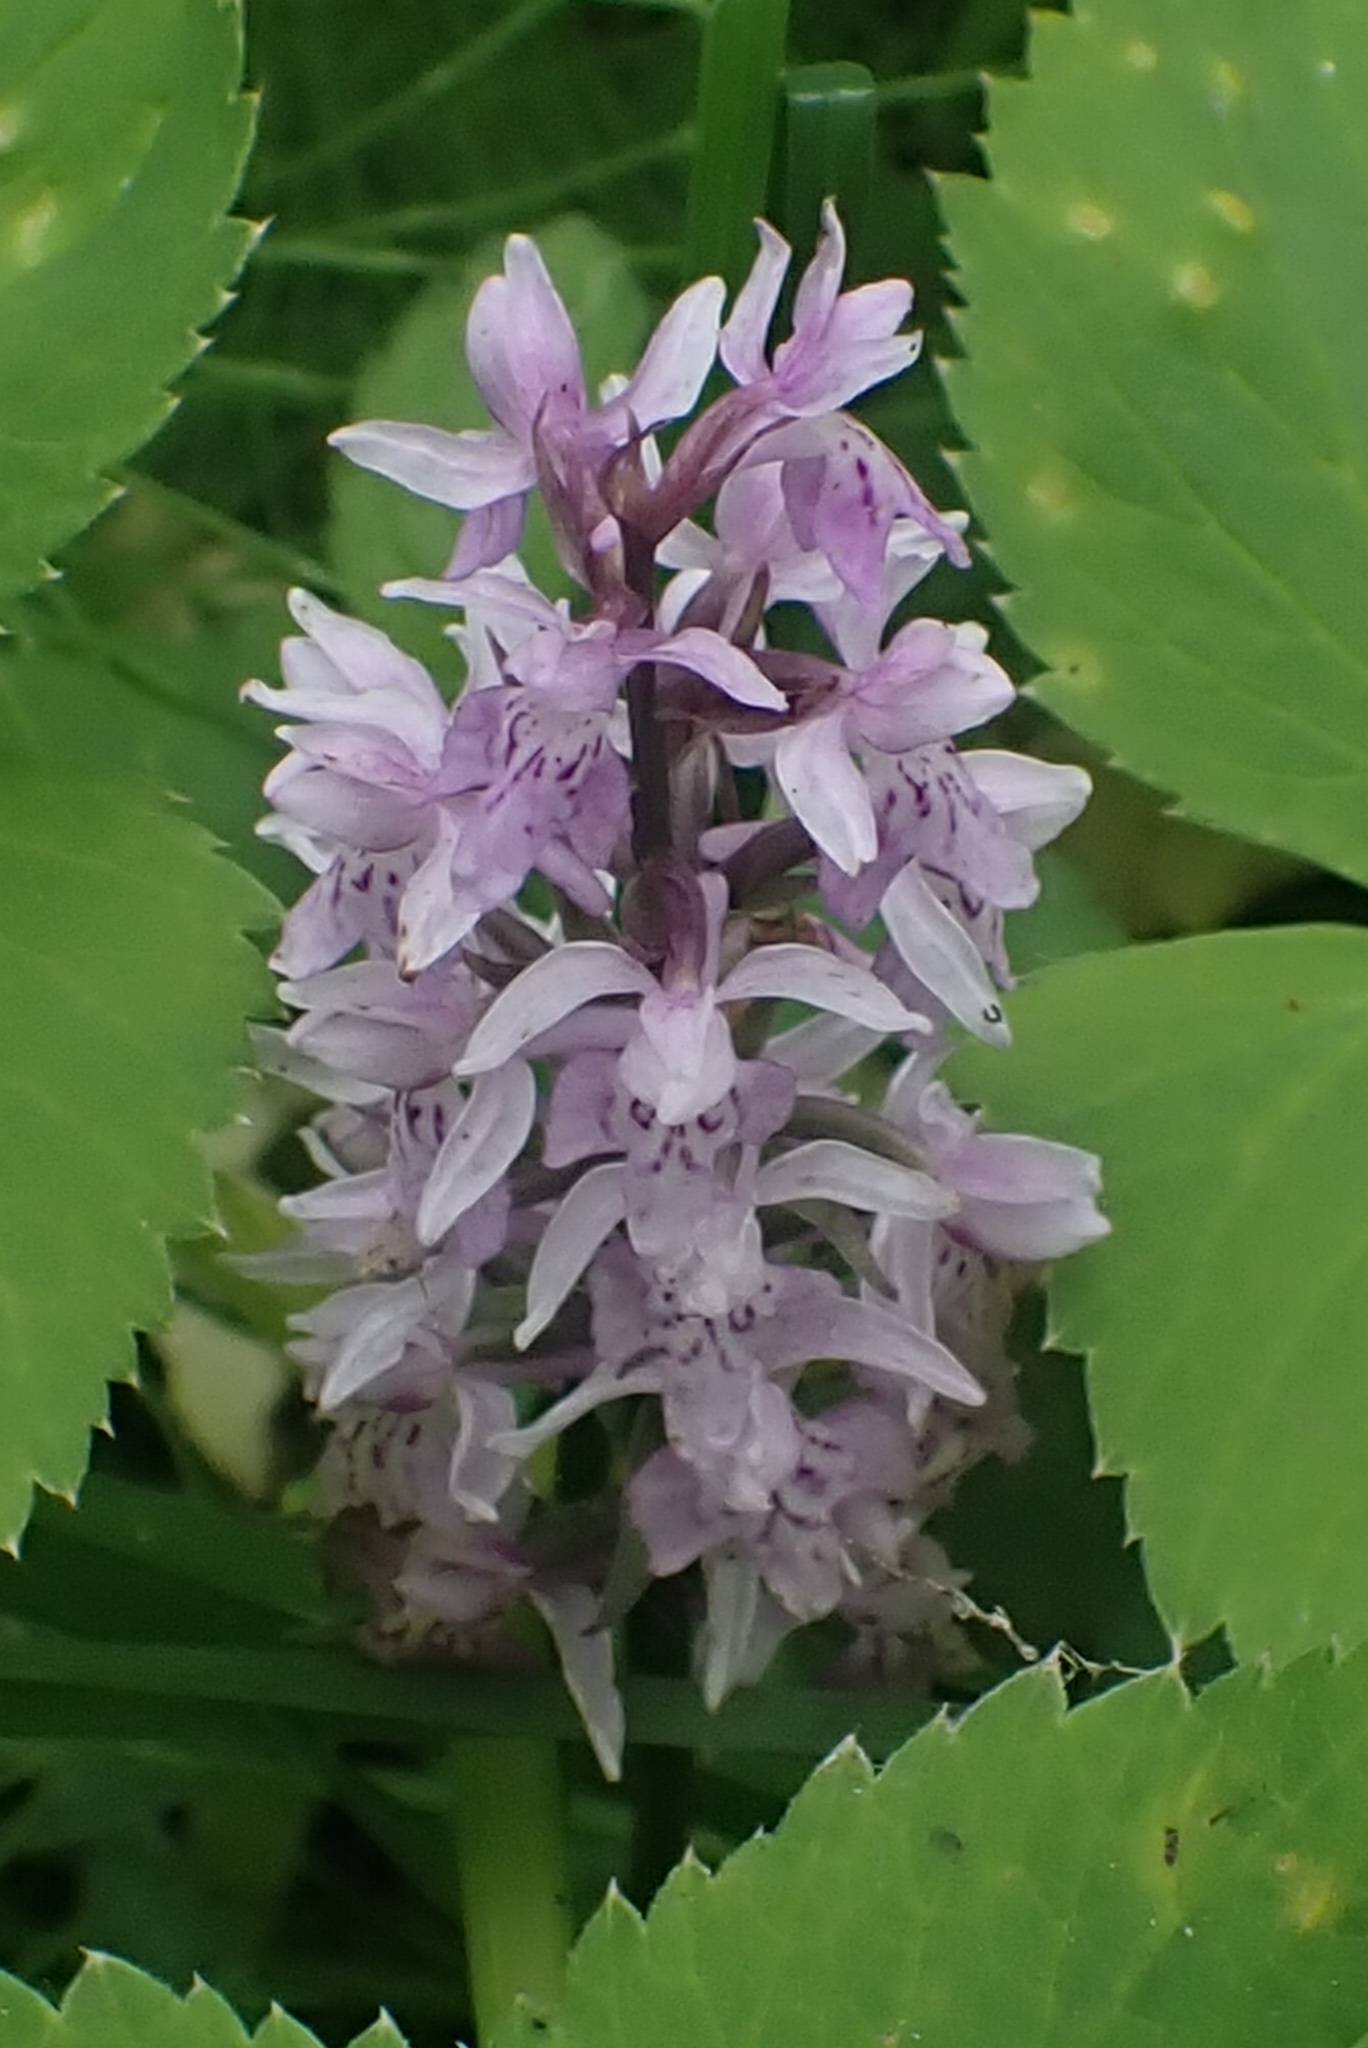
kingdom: Plantae
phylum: Tracheophyta
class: Liliopsida
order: Asparagales
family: Orchidaceae
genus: Dactylorhiza
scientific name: Dactylorhiza maculata
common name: Heath spotted-orchid
